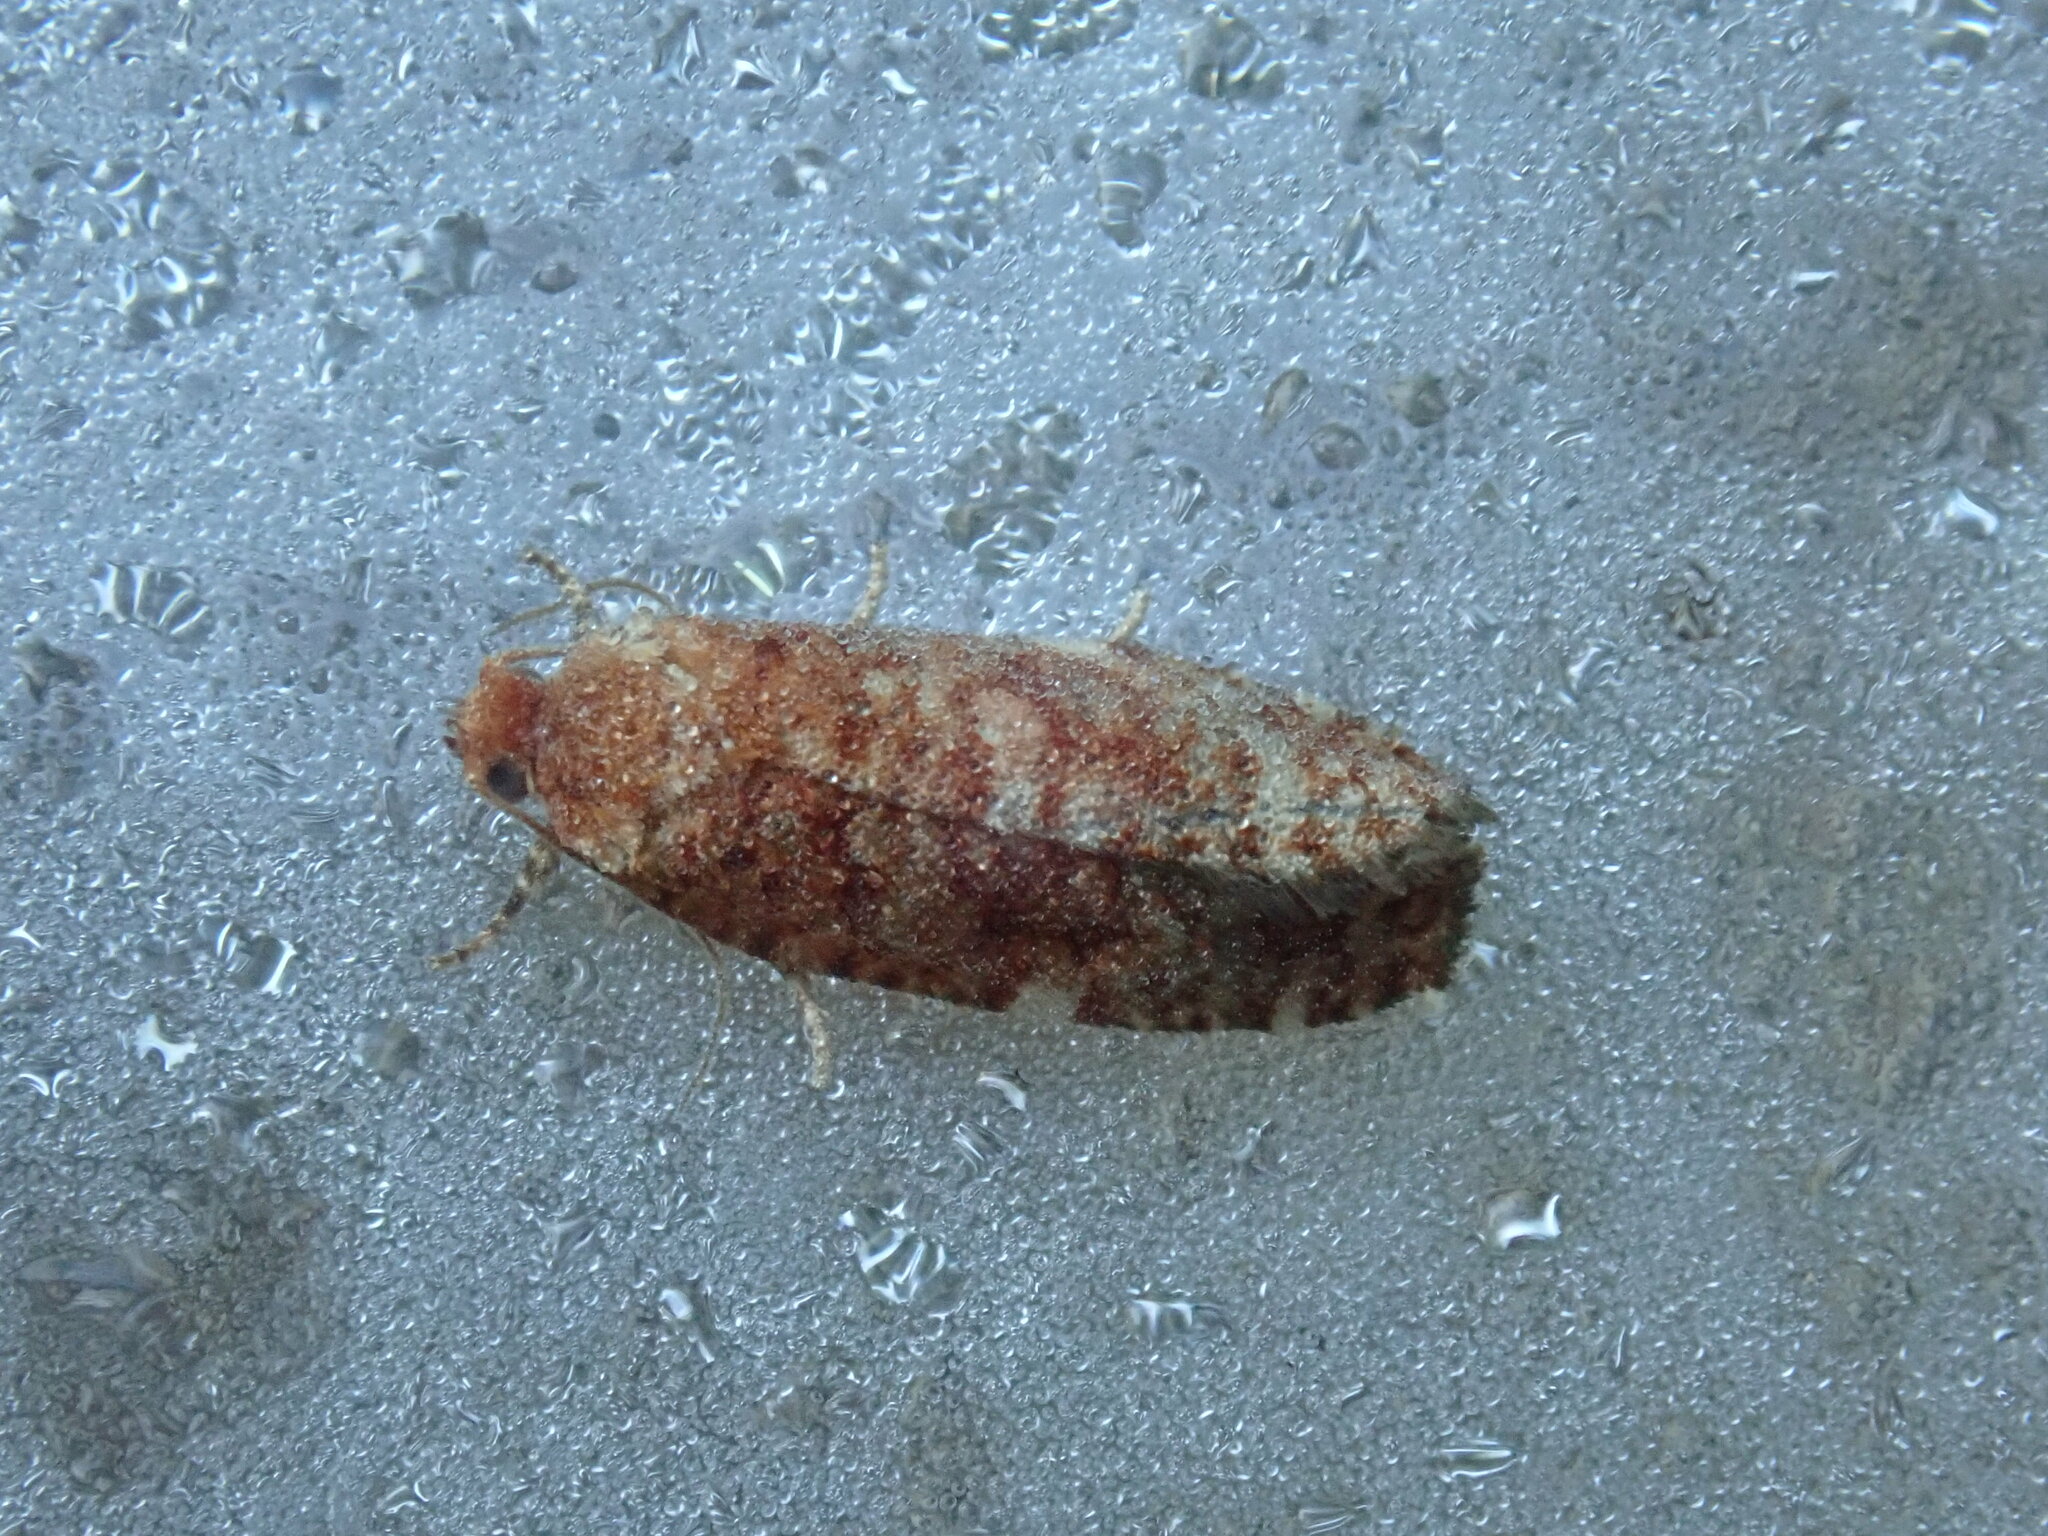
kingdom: Animalia
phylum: Arthropoda
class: Insecta
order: Lepidoptera
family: Tortricidae
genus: Choristoneura
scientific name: Choristoneura pinus
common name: Jack pine budworm
